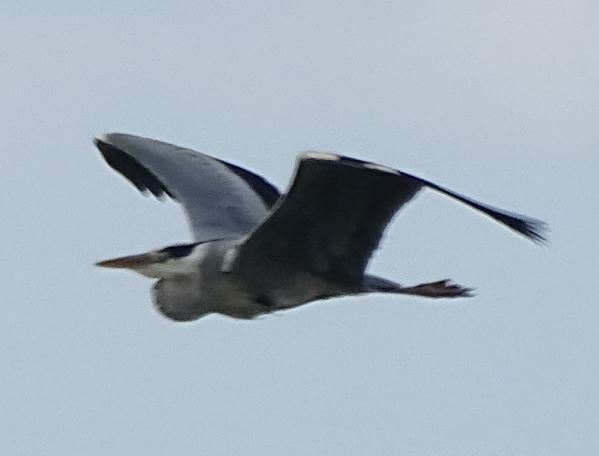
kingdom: Animalia
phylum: Chordata
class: Aves
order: Pelecaniformes
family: Ardeidae
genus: Ardea
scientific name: Ardea cinerea
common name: Grey heron
